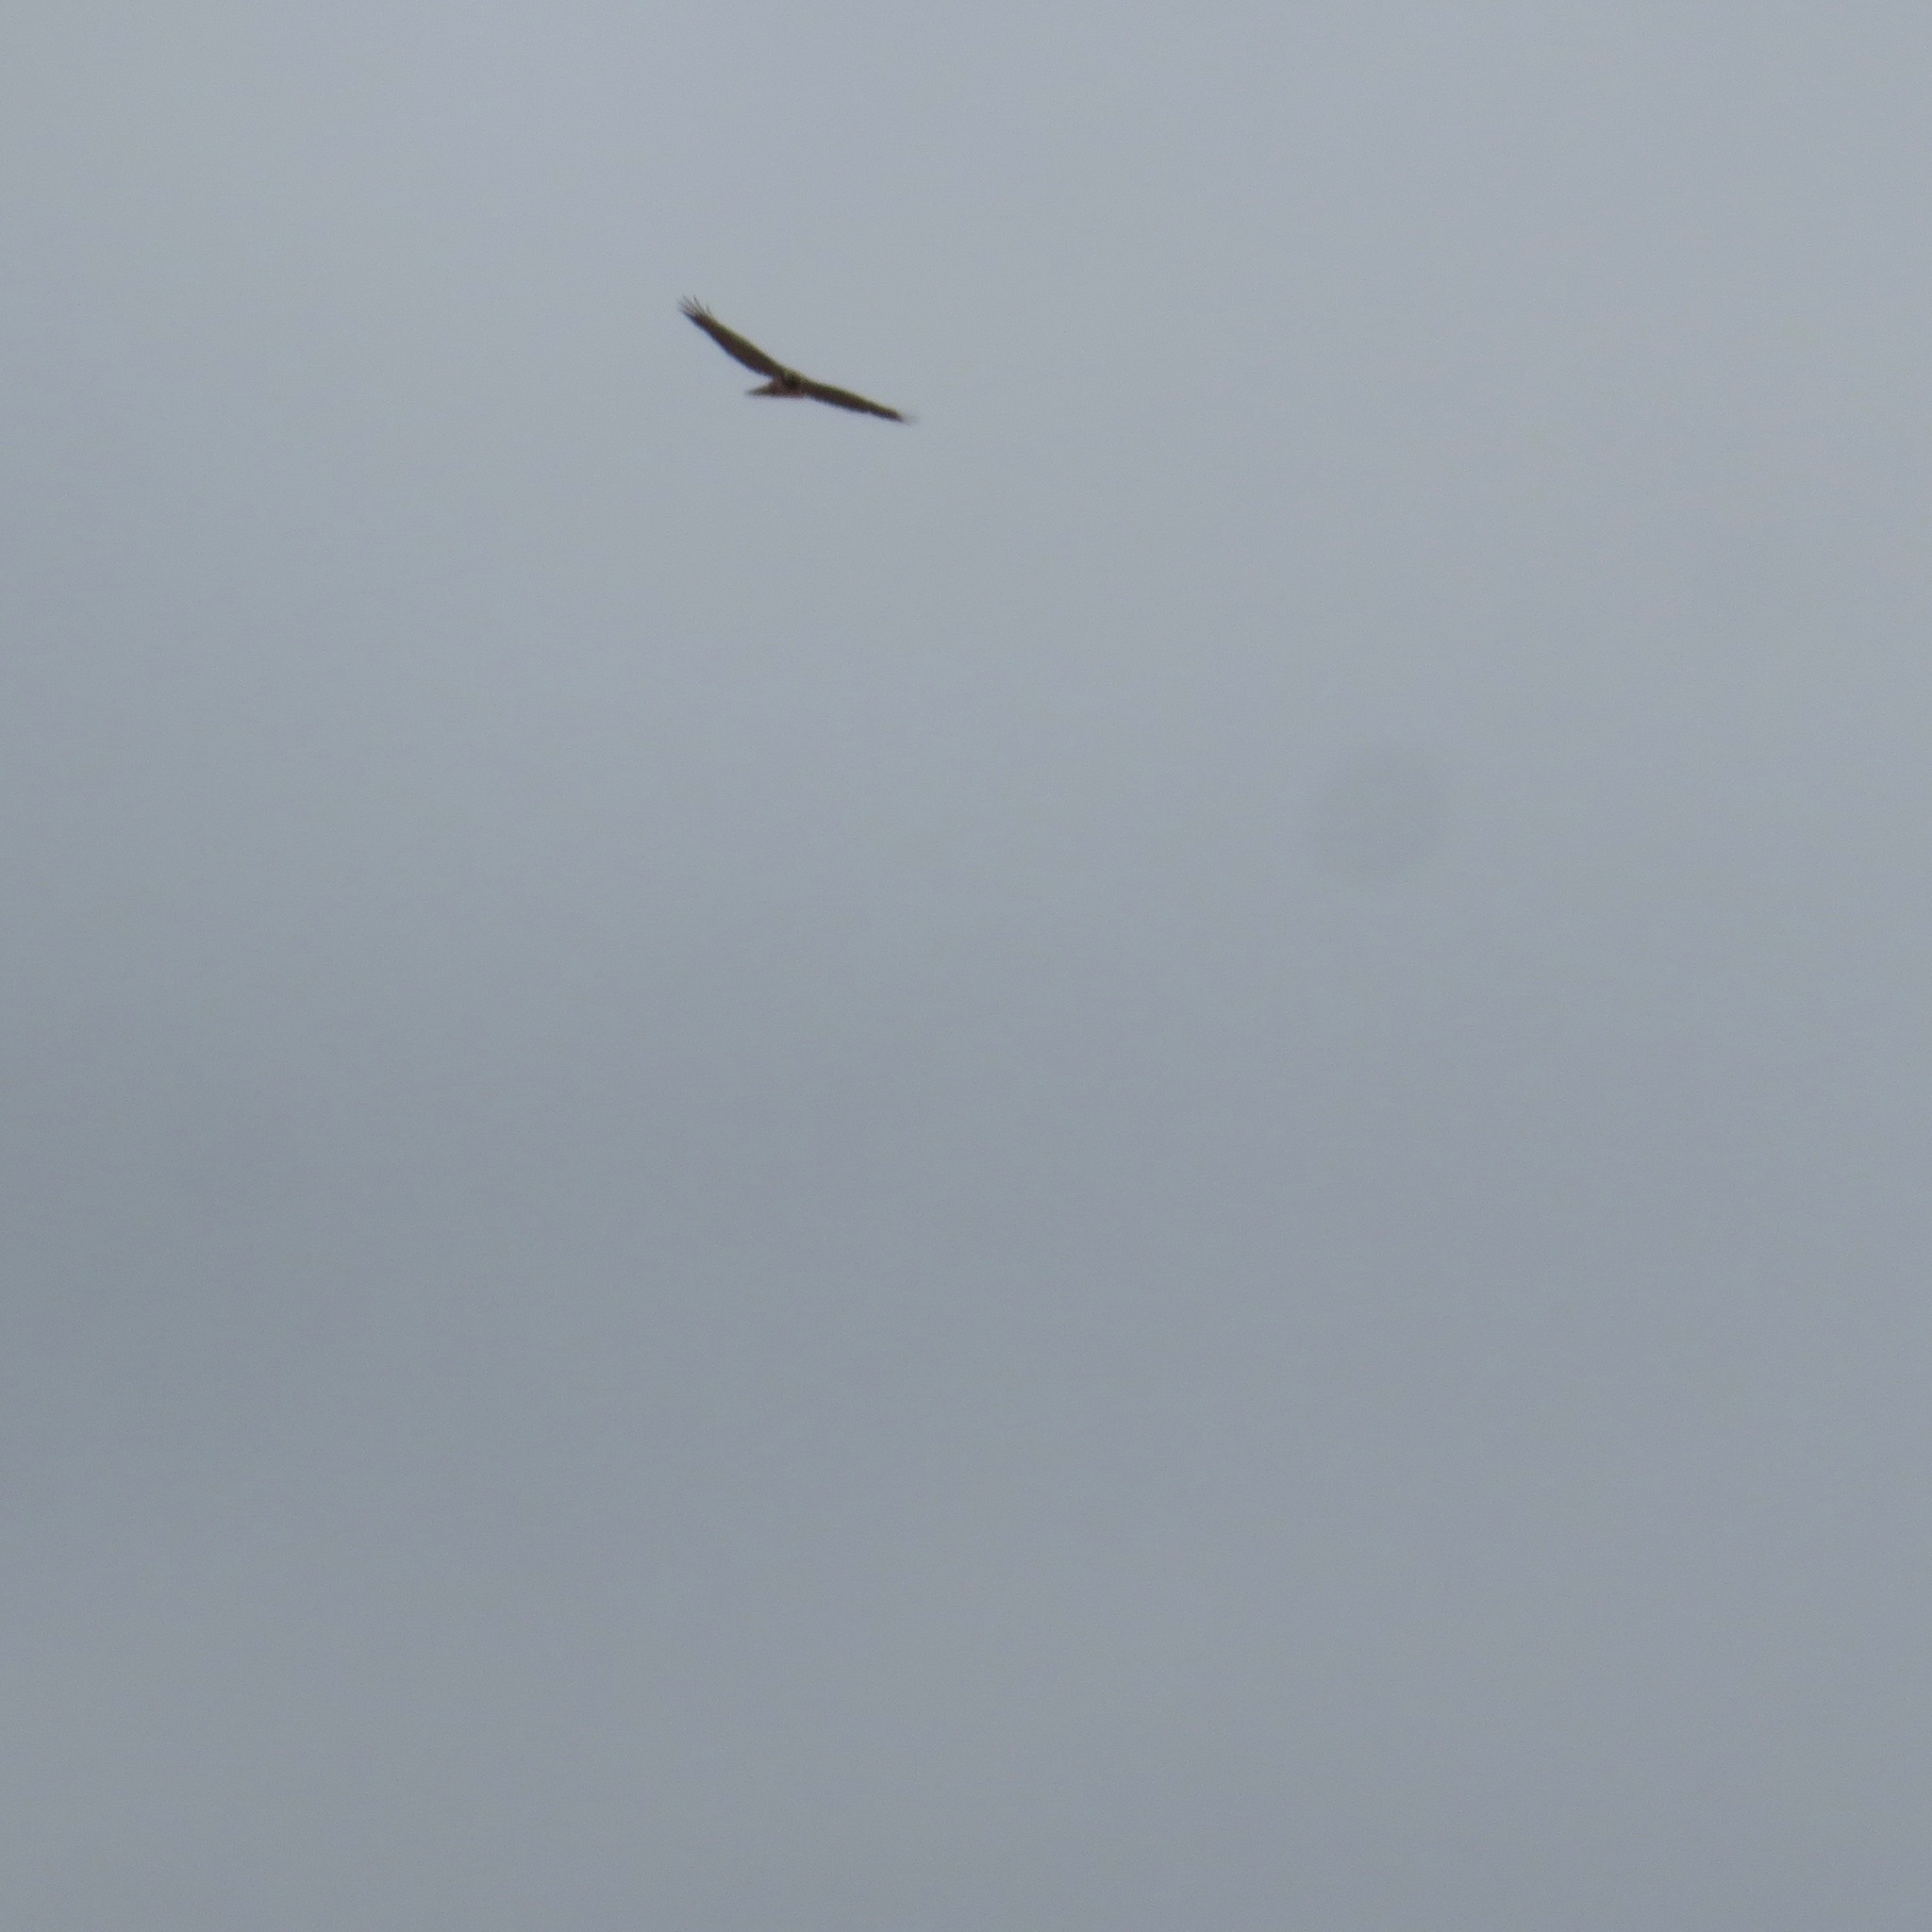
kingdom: Animalia
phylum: Chordata
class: Aves
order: Accipitriformes
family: Cathartidae
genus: Cathartes
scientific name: Cathartes aura
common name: Turkey vulture
